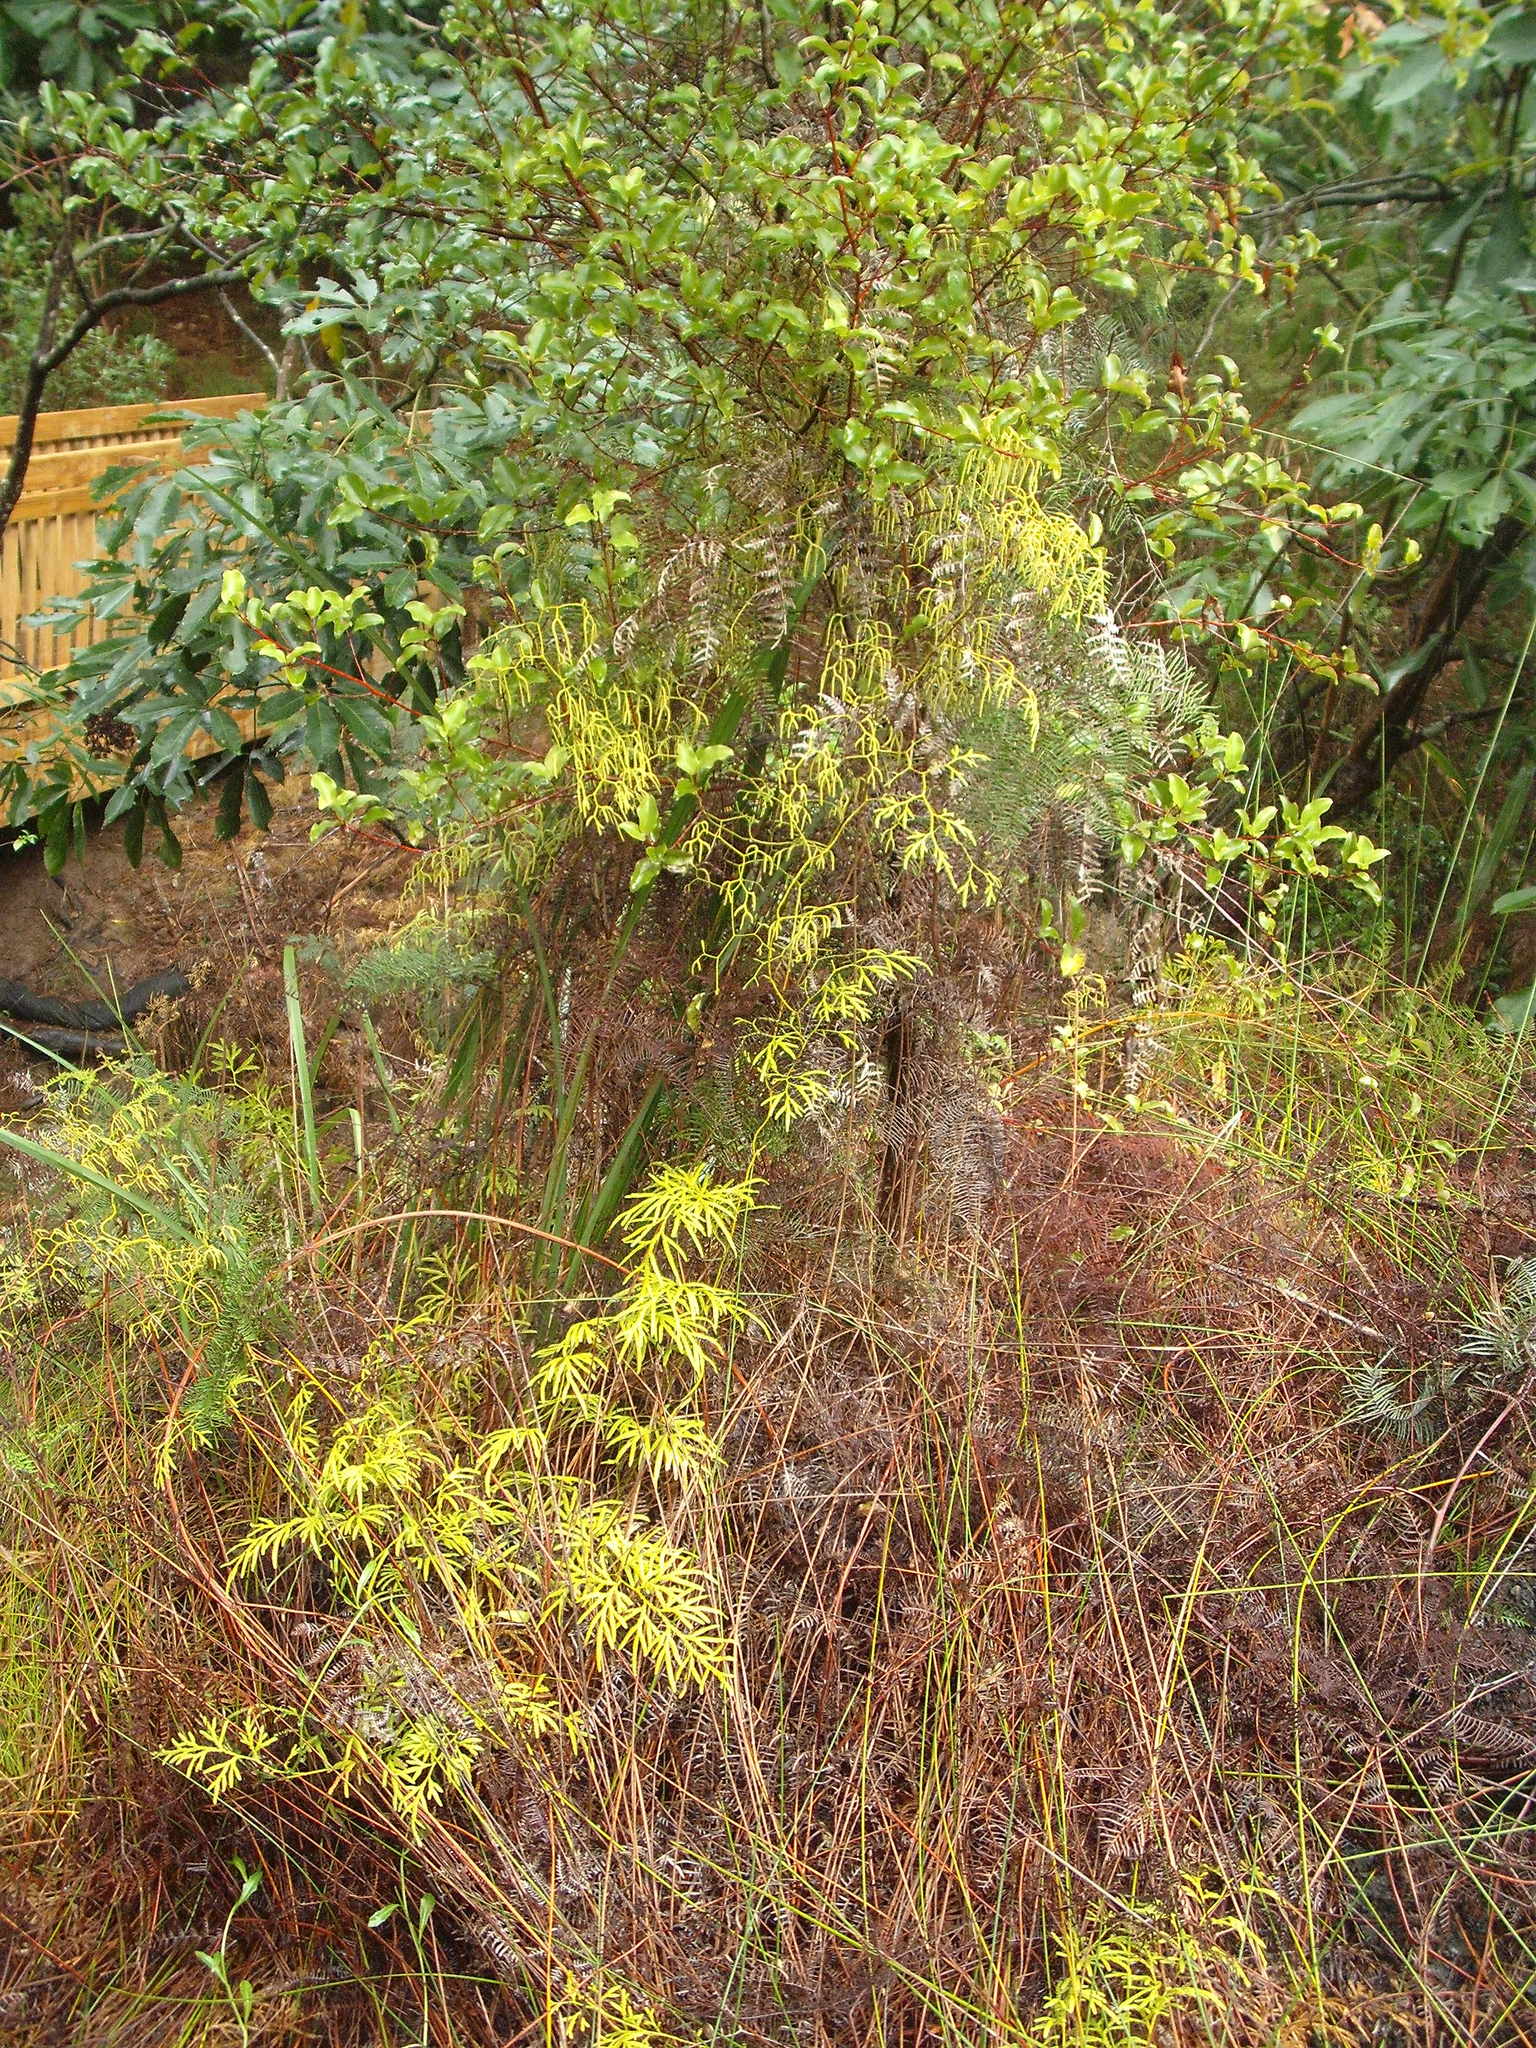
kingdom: Plantae
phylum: Tracheophyta
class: Lycopodiopsida
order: Lycopodiales
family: Lycopodiaceae
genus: Lycopodium
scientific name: Lycopodium volubile
